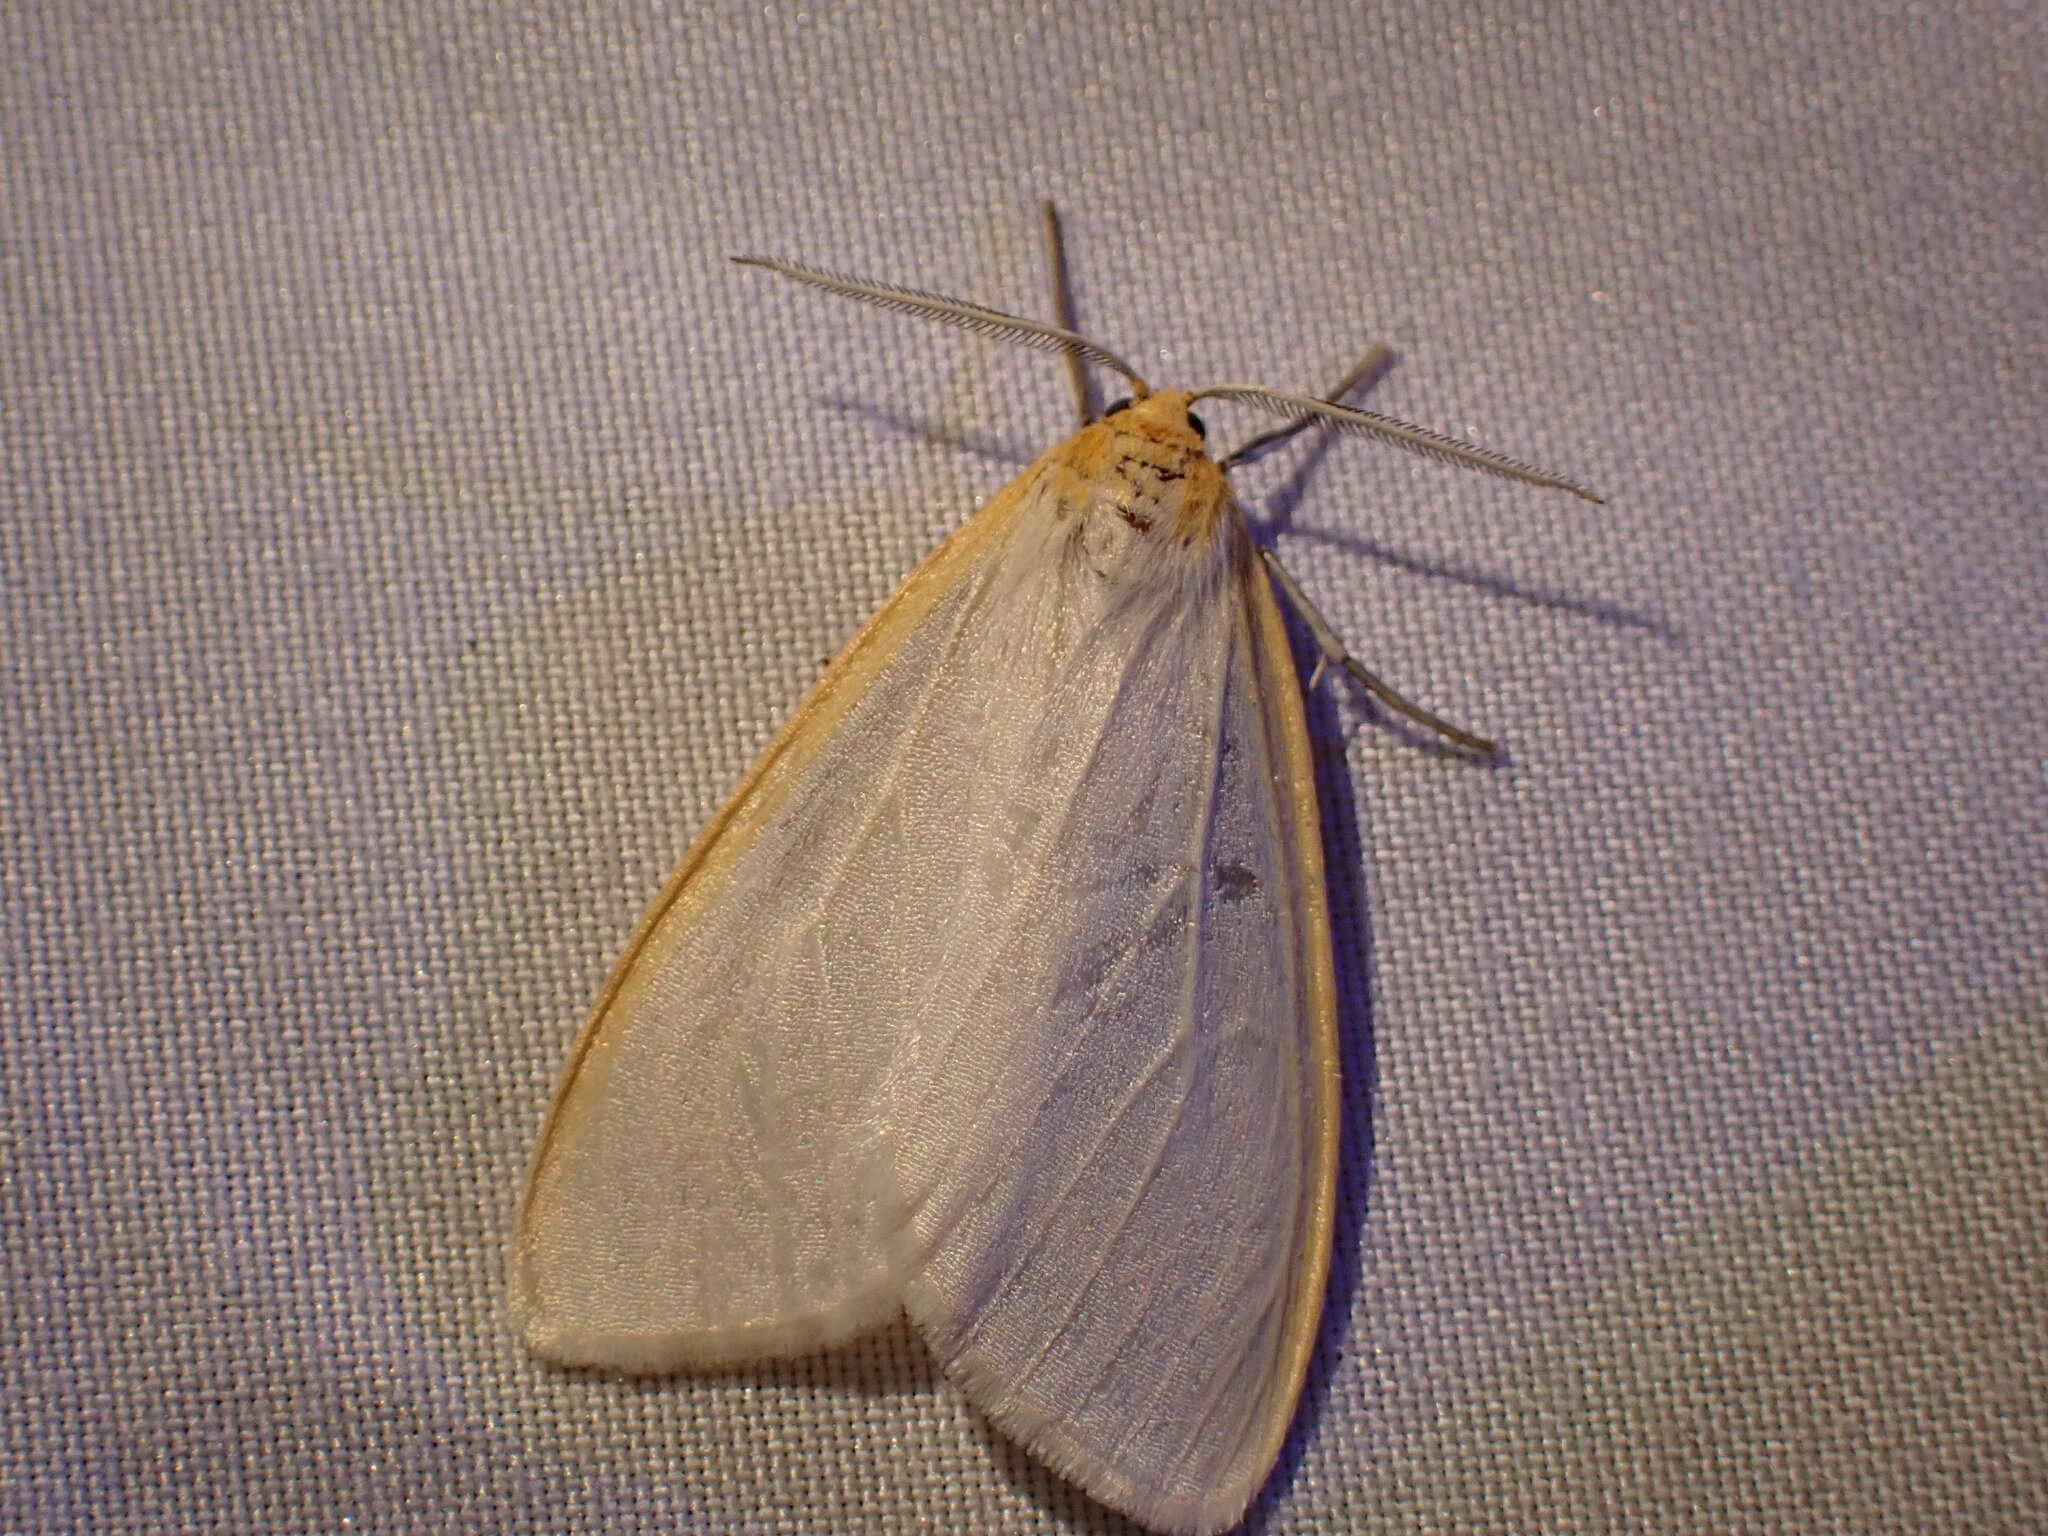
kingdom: Animalia
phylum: Arthropoda
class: Insecta
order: Lepidoptera
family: Erebidae
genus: Cycnia
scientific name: Cycnia tenera
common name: Delicate cycnia moth
